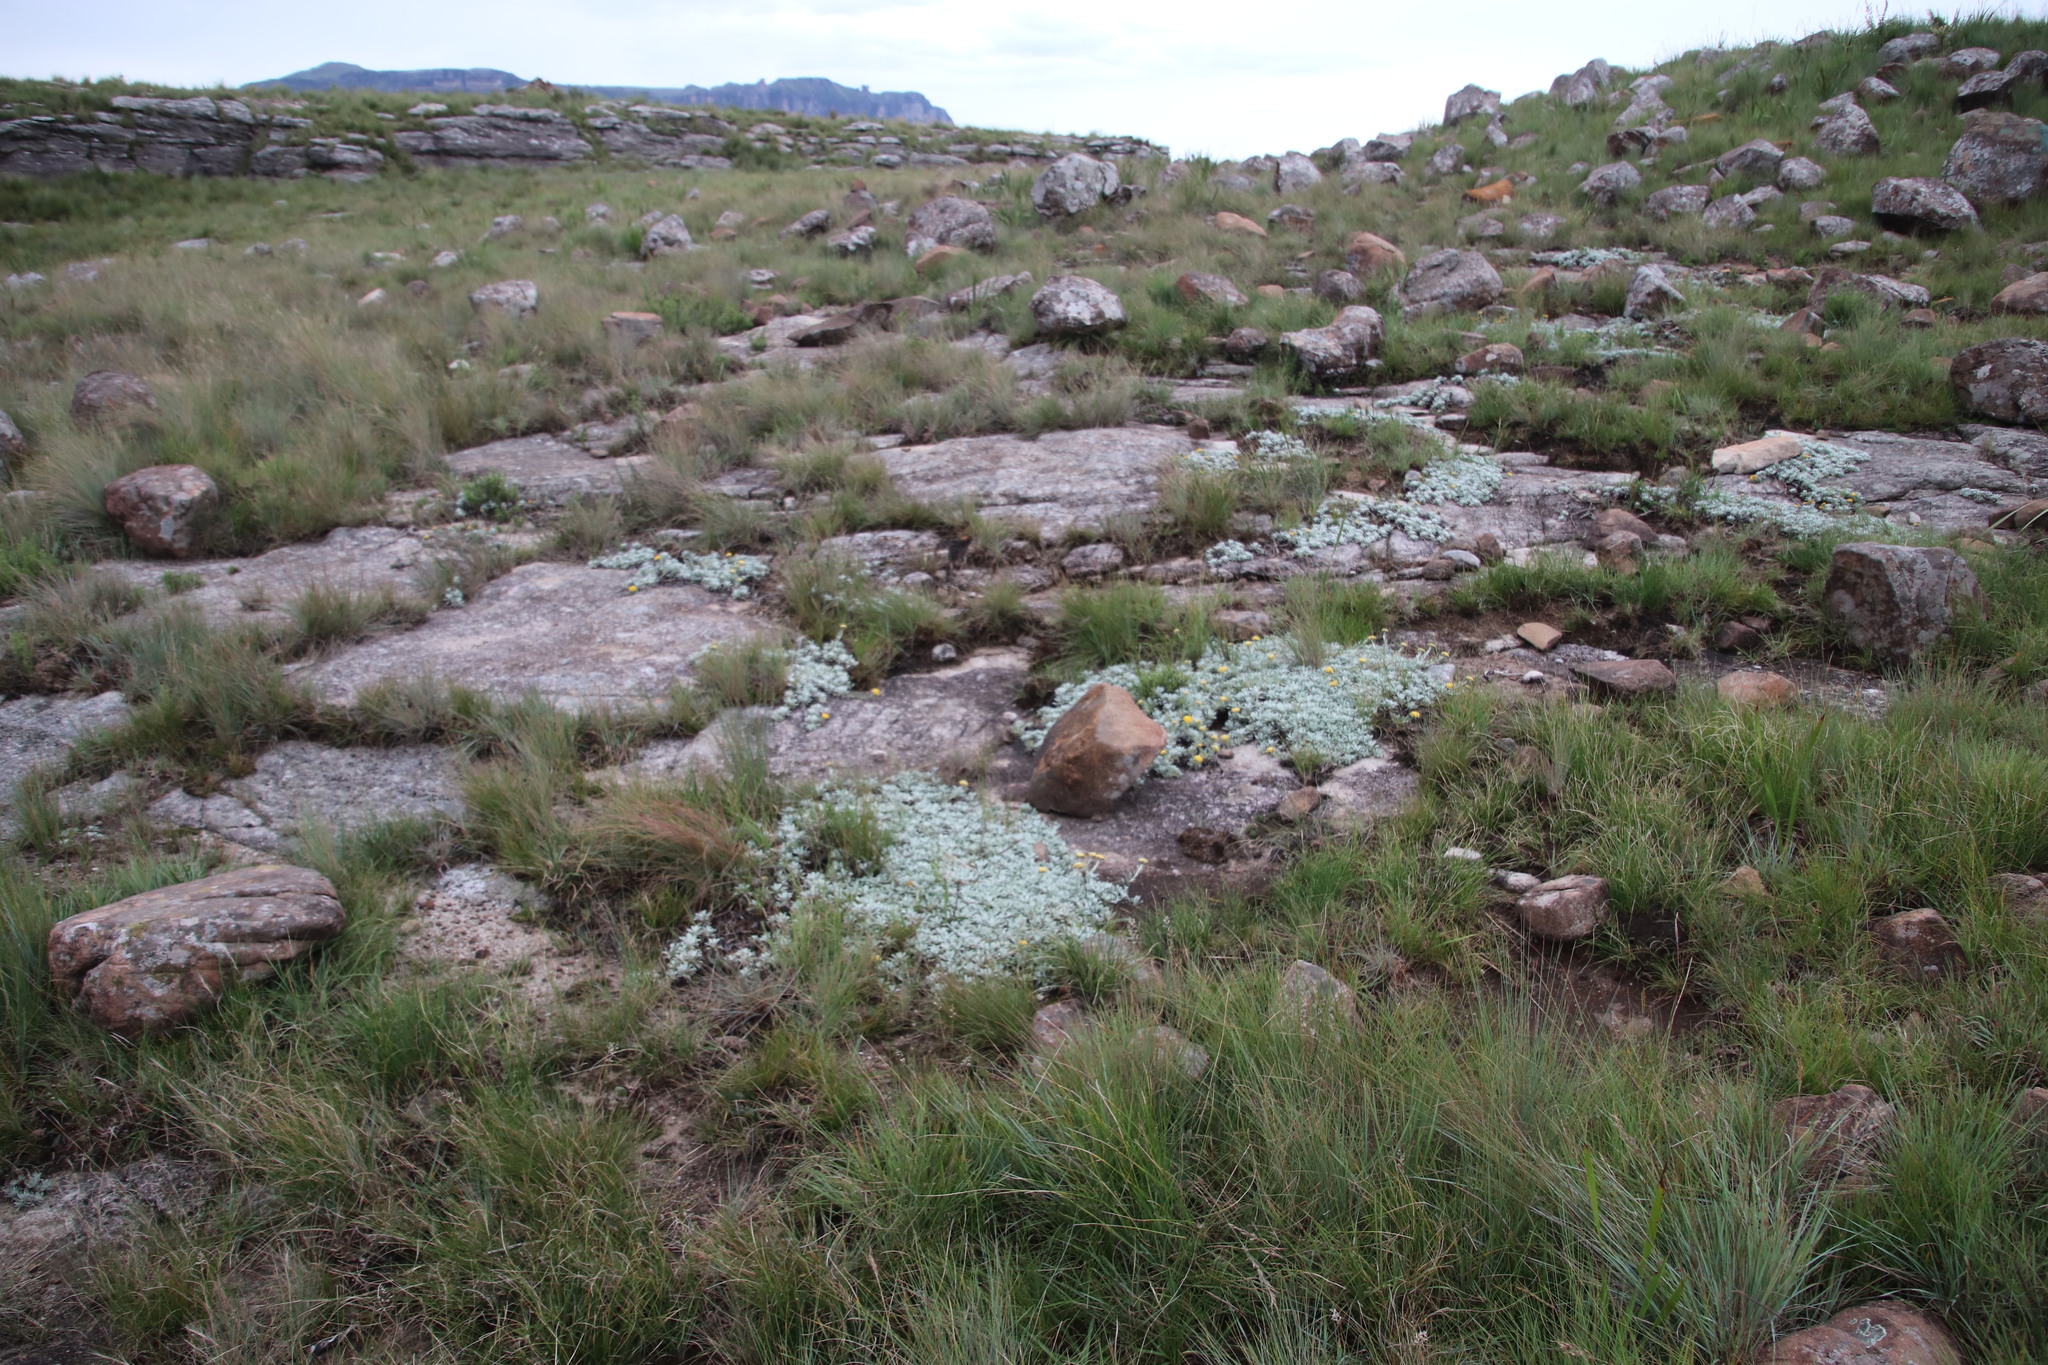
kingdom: Plantae
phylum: Tracheophyta
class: Magnoliopsida
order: Asterales
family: Asteraceae
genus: Helichrysum
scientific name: Helichrysum albirosulatum
